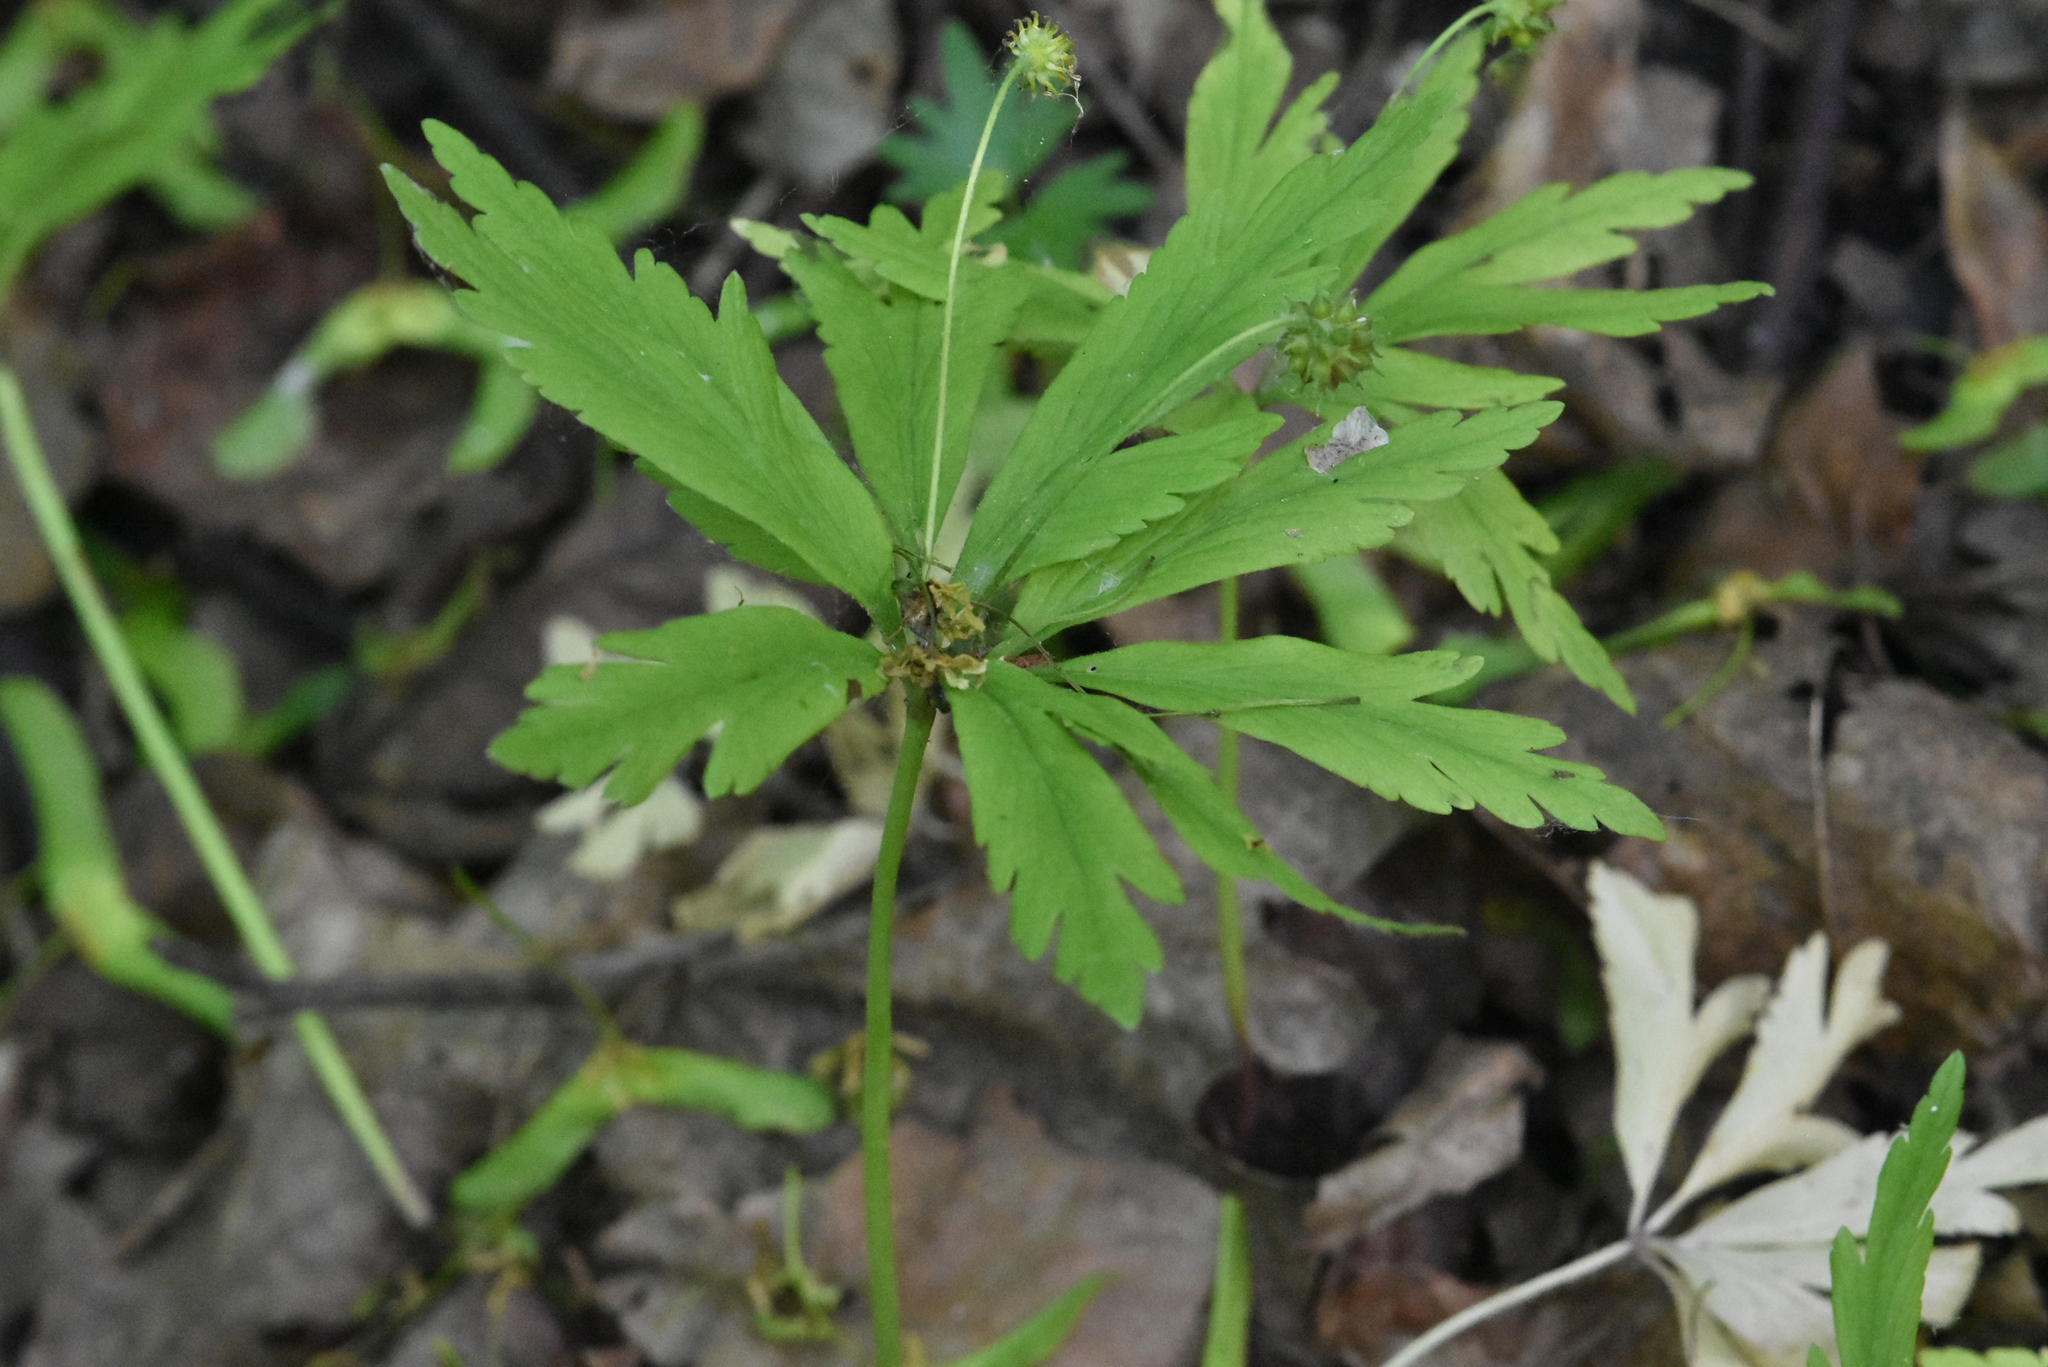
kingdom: Plantae
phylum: Tracheophyta
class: Magnoliopsida
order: Ranunculales
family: Ranunculaceae
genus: Anemone
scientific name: Anemone ranunculoides
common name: Yellow anemone
